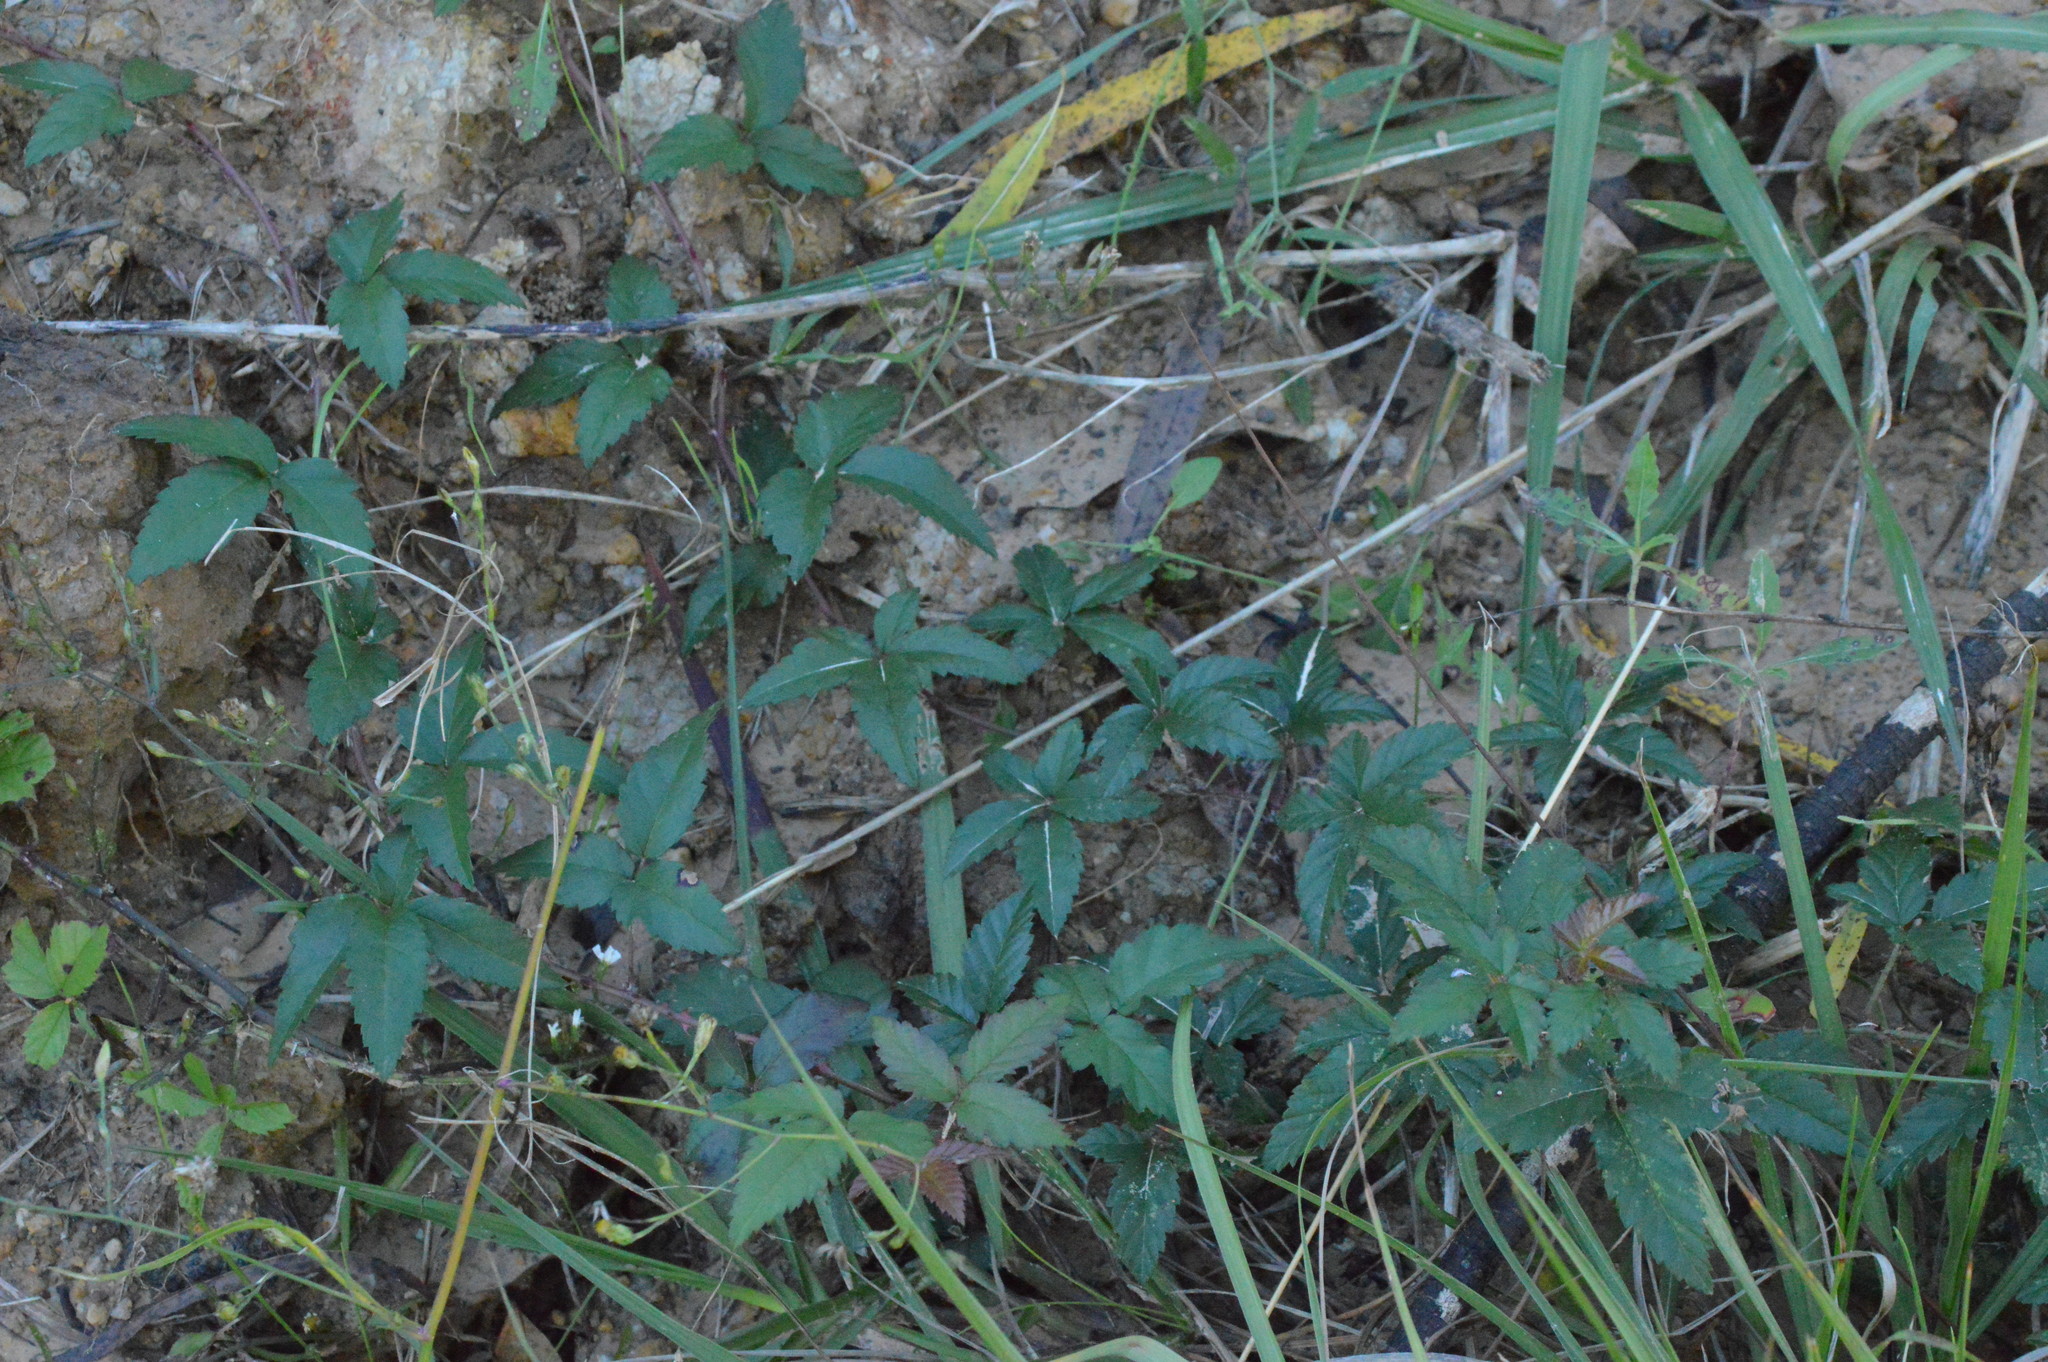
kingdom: Plantae
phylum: Tracheophyta
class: Magnoliopsida
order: Rosales
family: Rosaceae
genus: Rubus
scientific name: Rubus trivialis
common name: Southern dewberry
